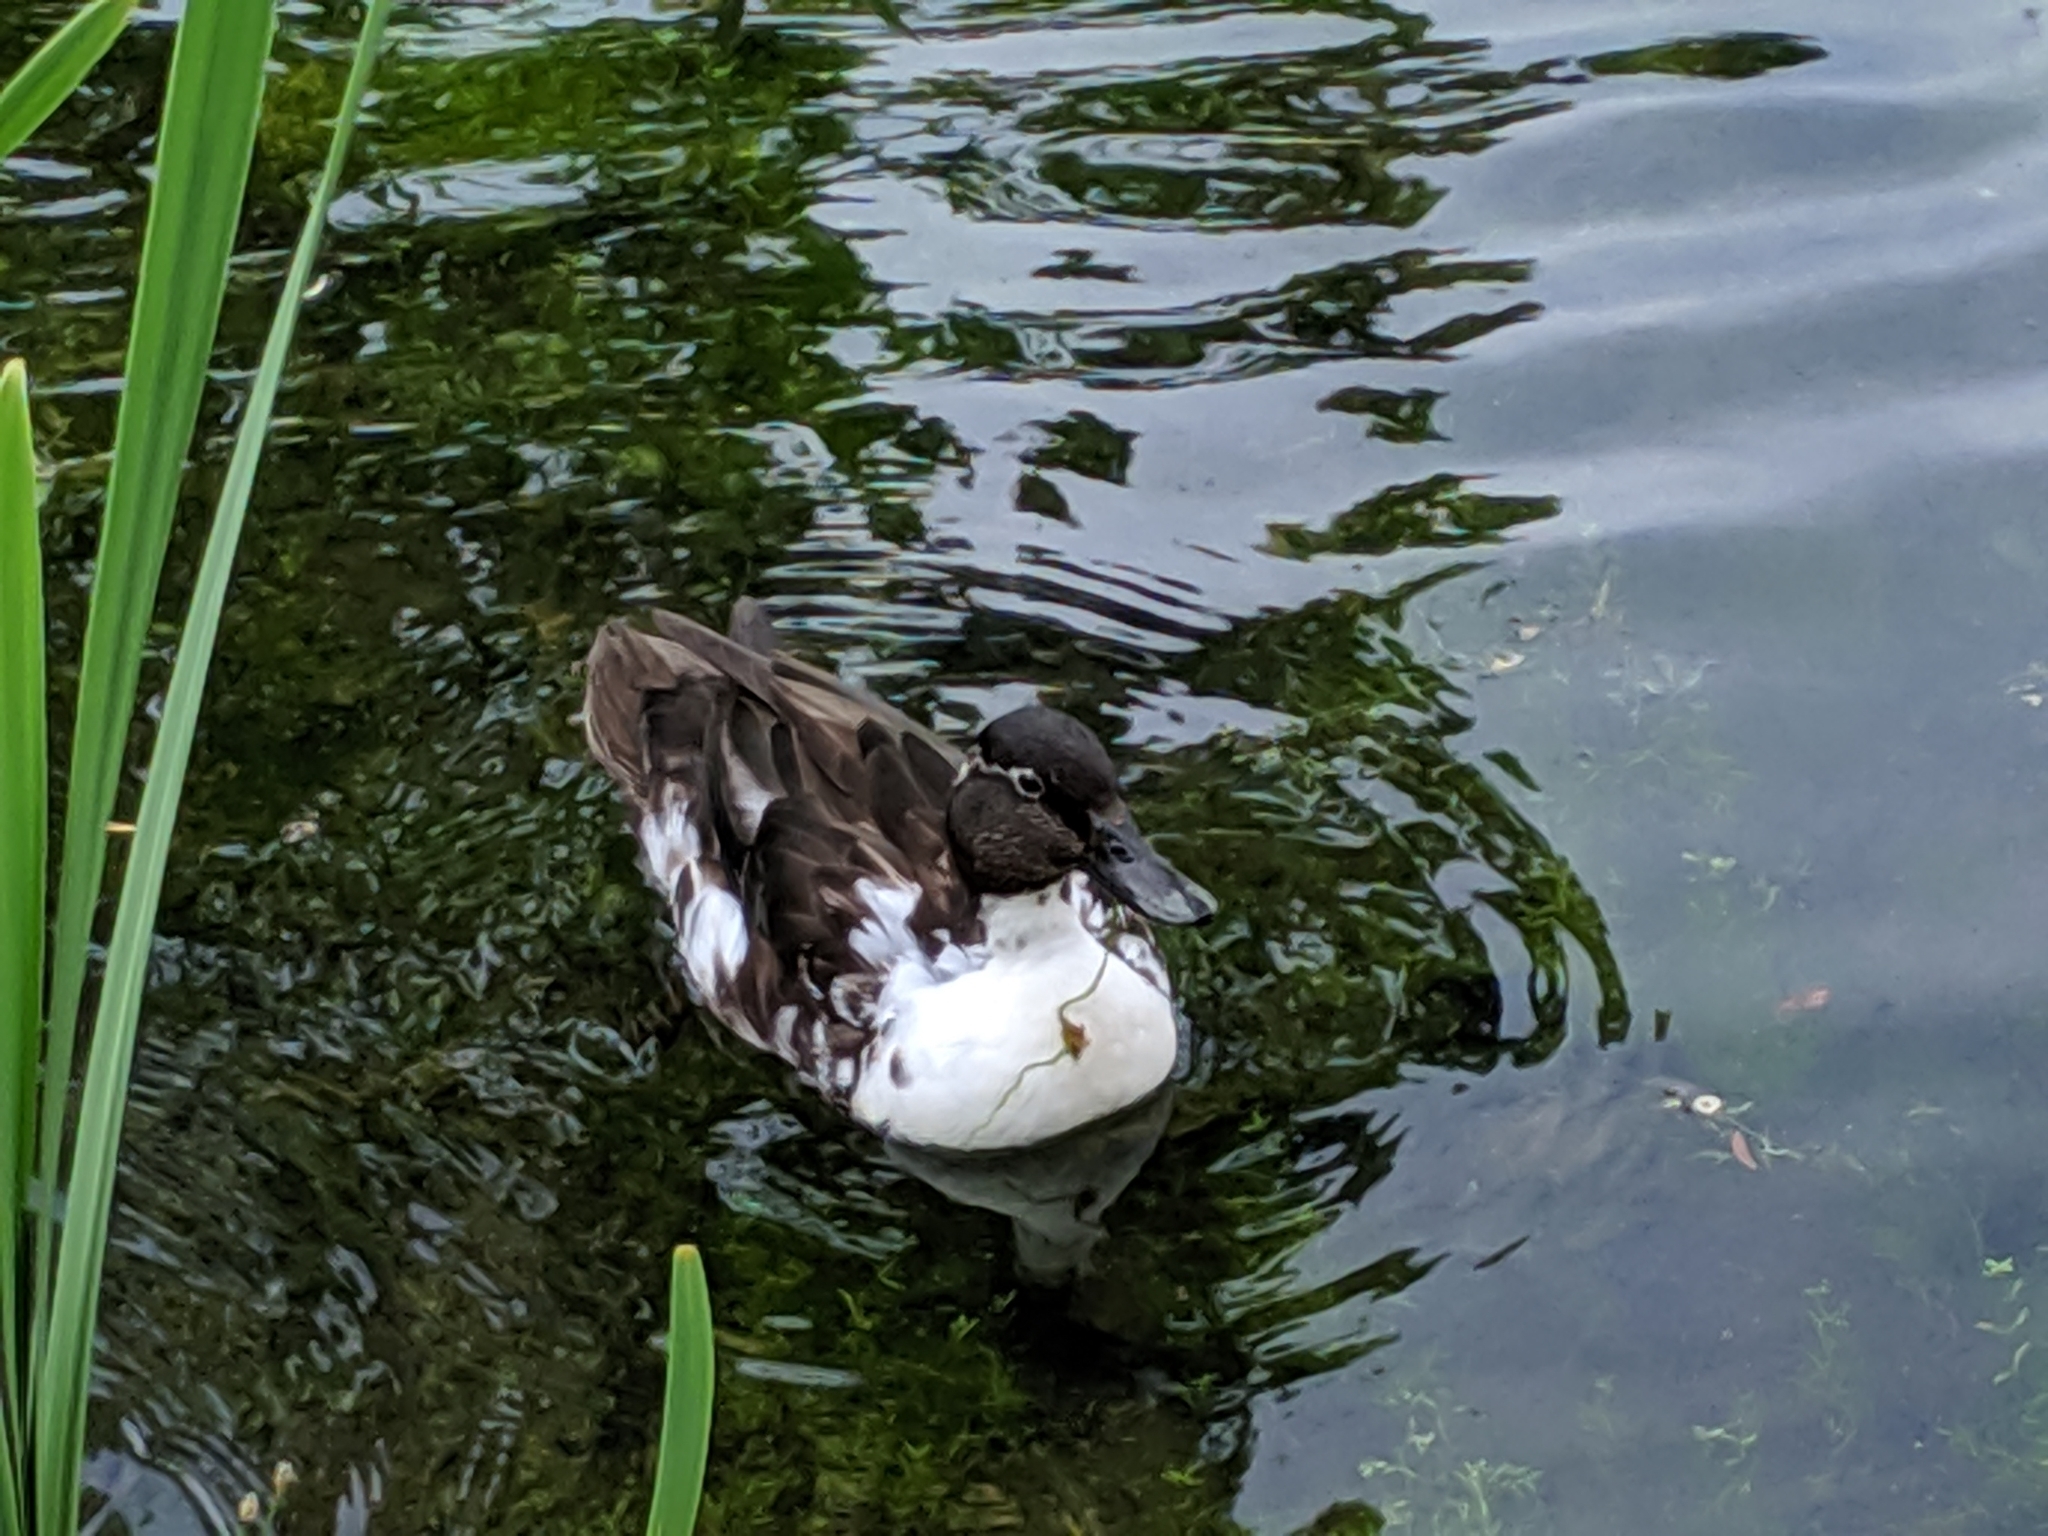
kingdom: Animalia
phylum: Chordata
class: Aves
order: Anseriformes
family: Anatidae
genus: Anas
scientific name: Anas platyrhynchos
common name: Mallard
